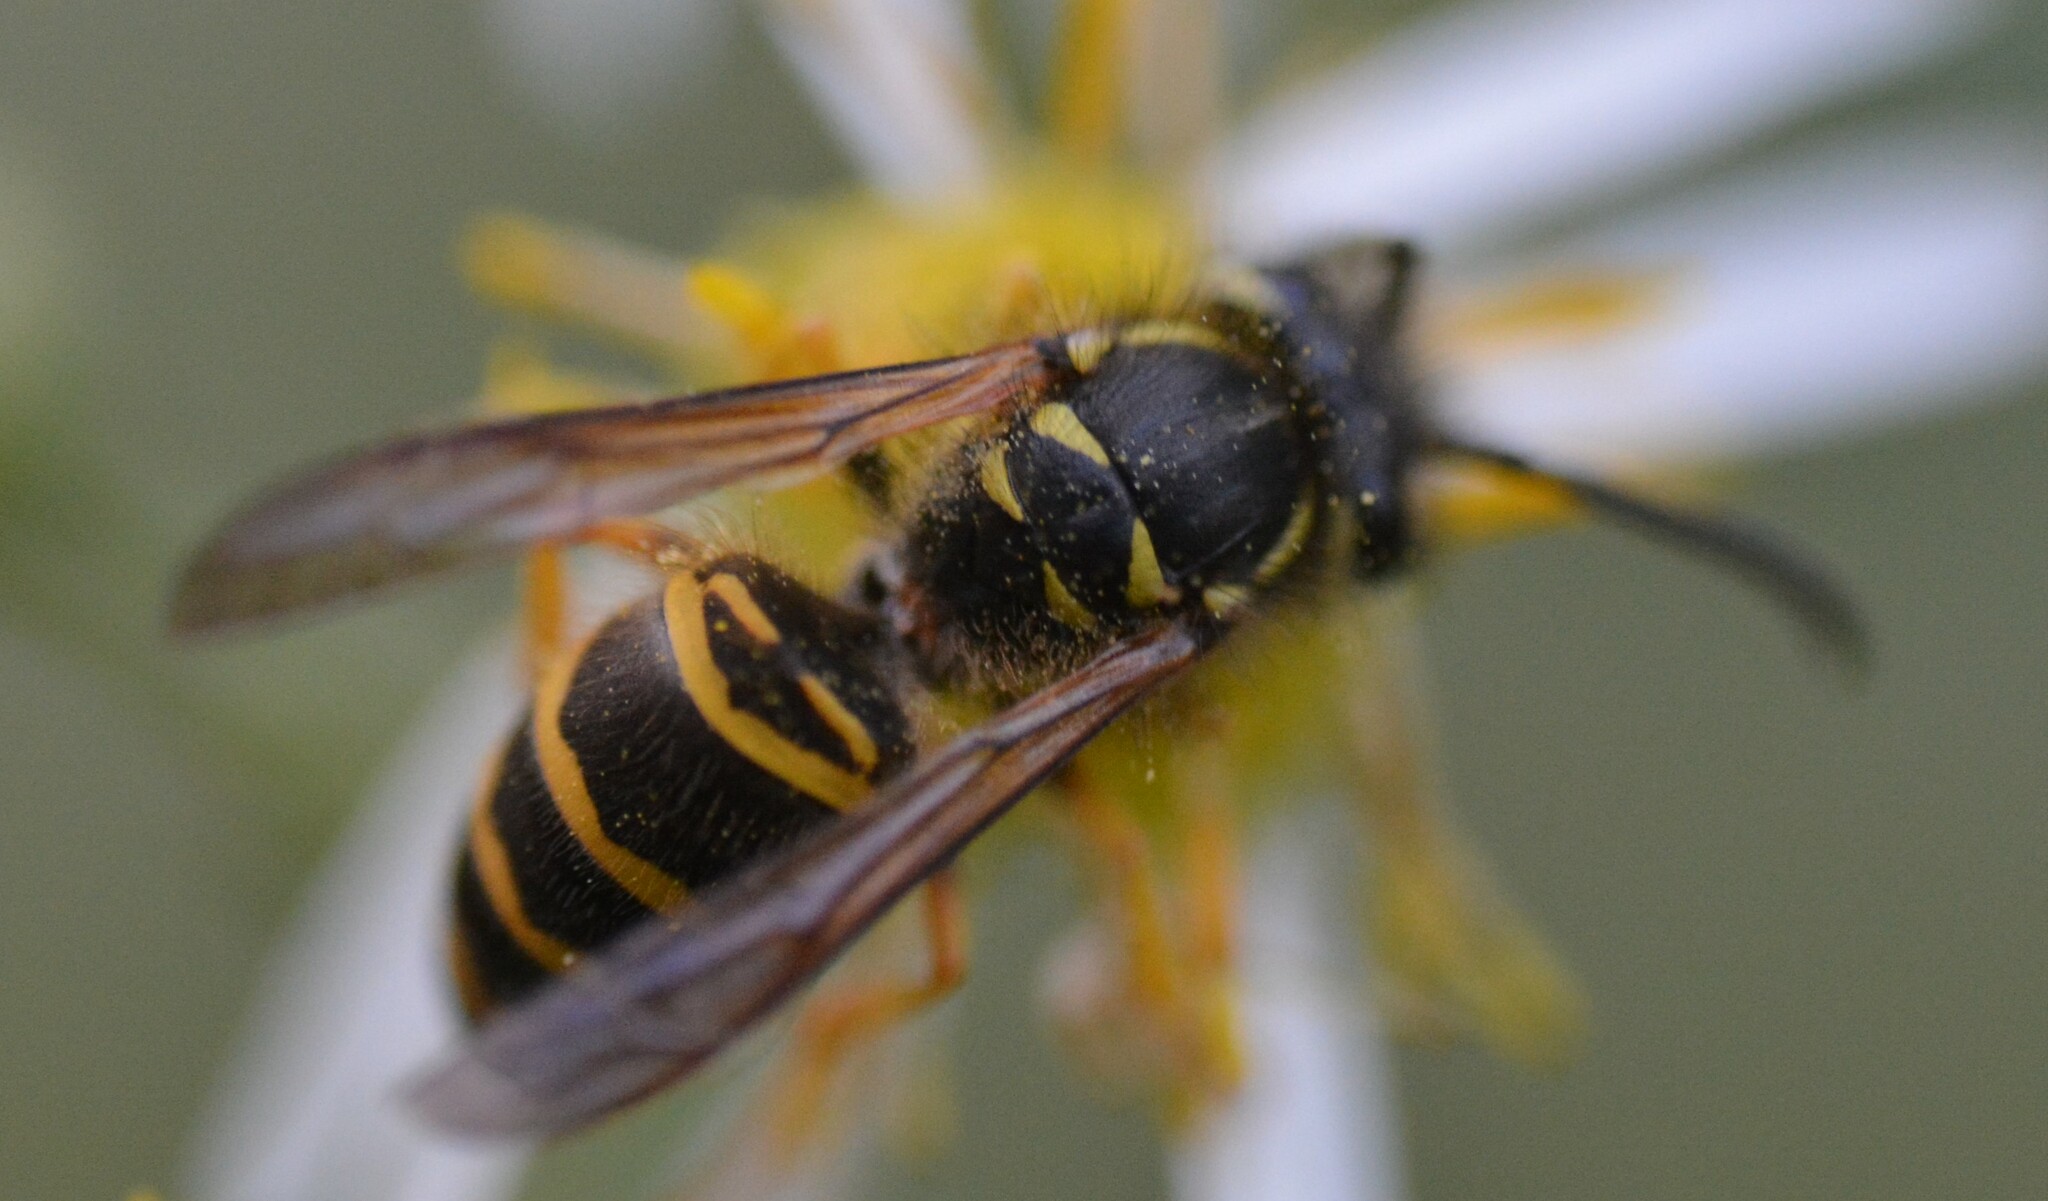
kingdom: Animalia
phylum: Arthropoda
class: Insecta
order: Hymenoptera
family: Vespidae
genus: Vespula
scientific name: Vespula maculifrons
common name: Eastern yellowjacket
